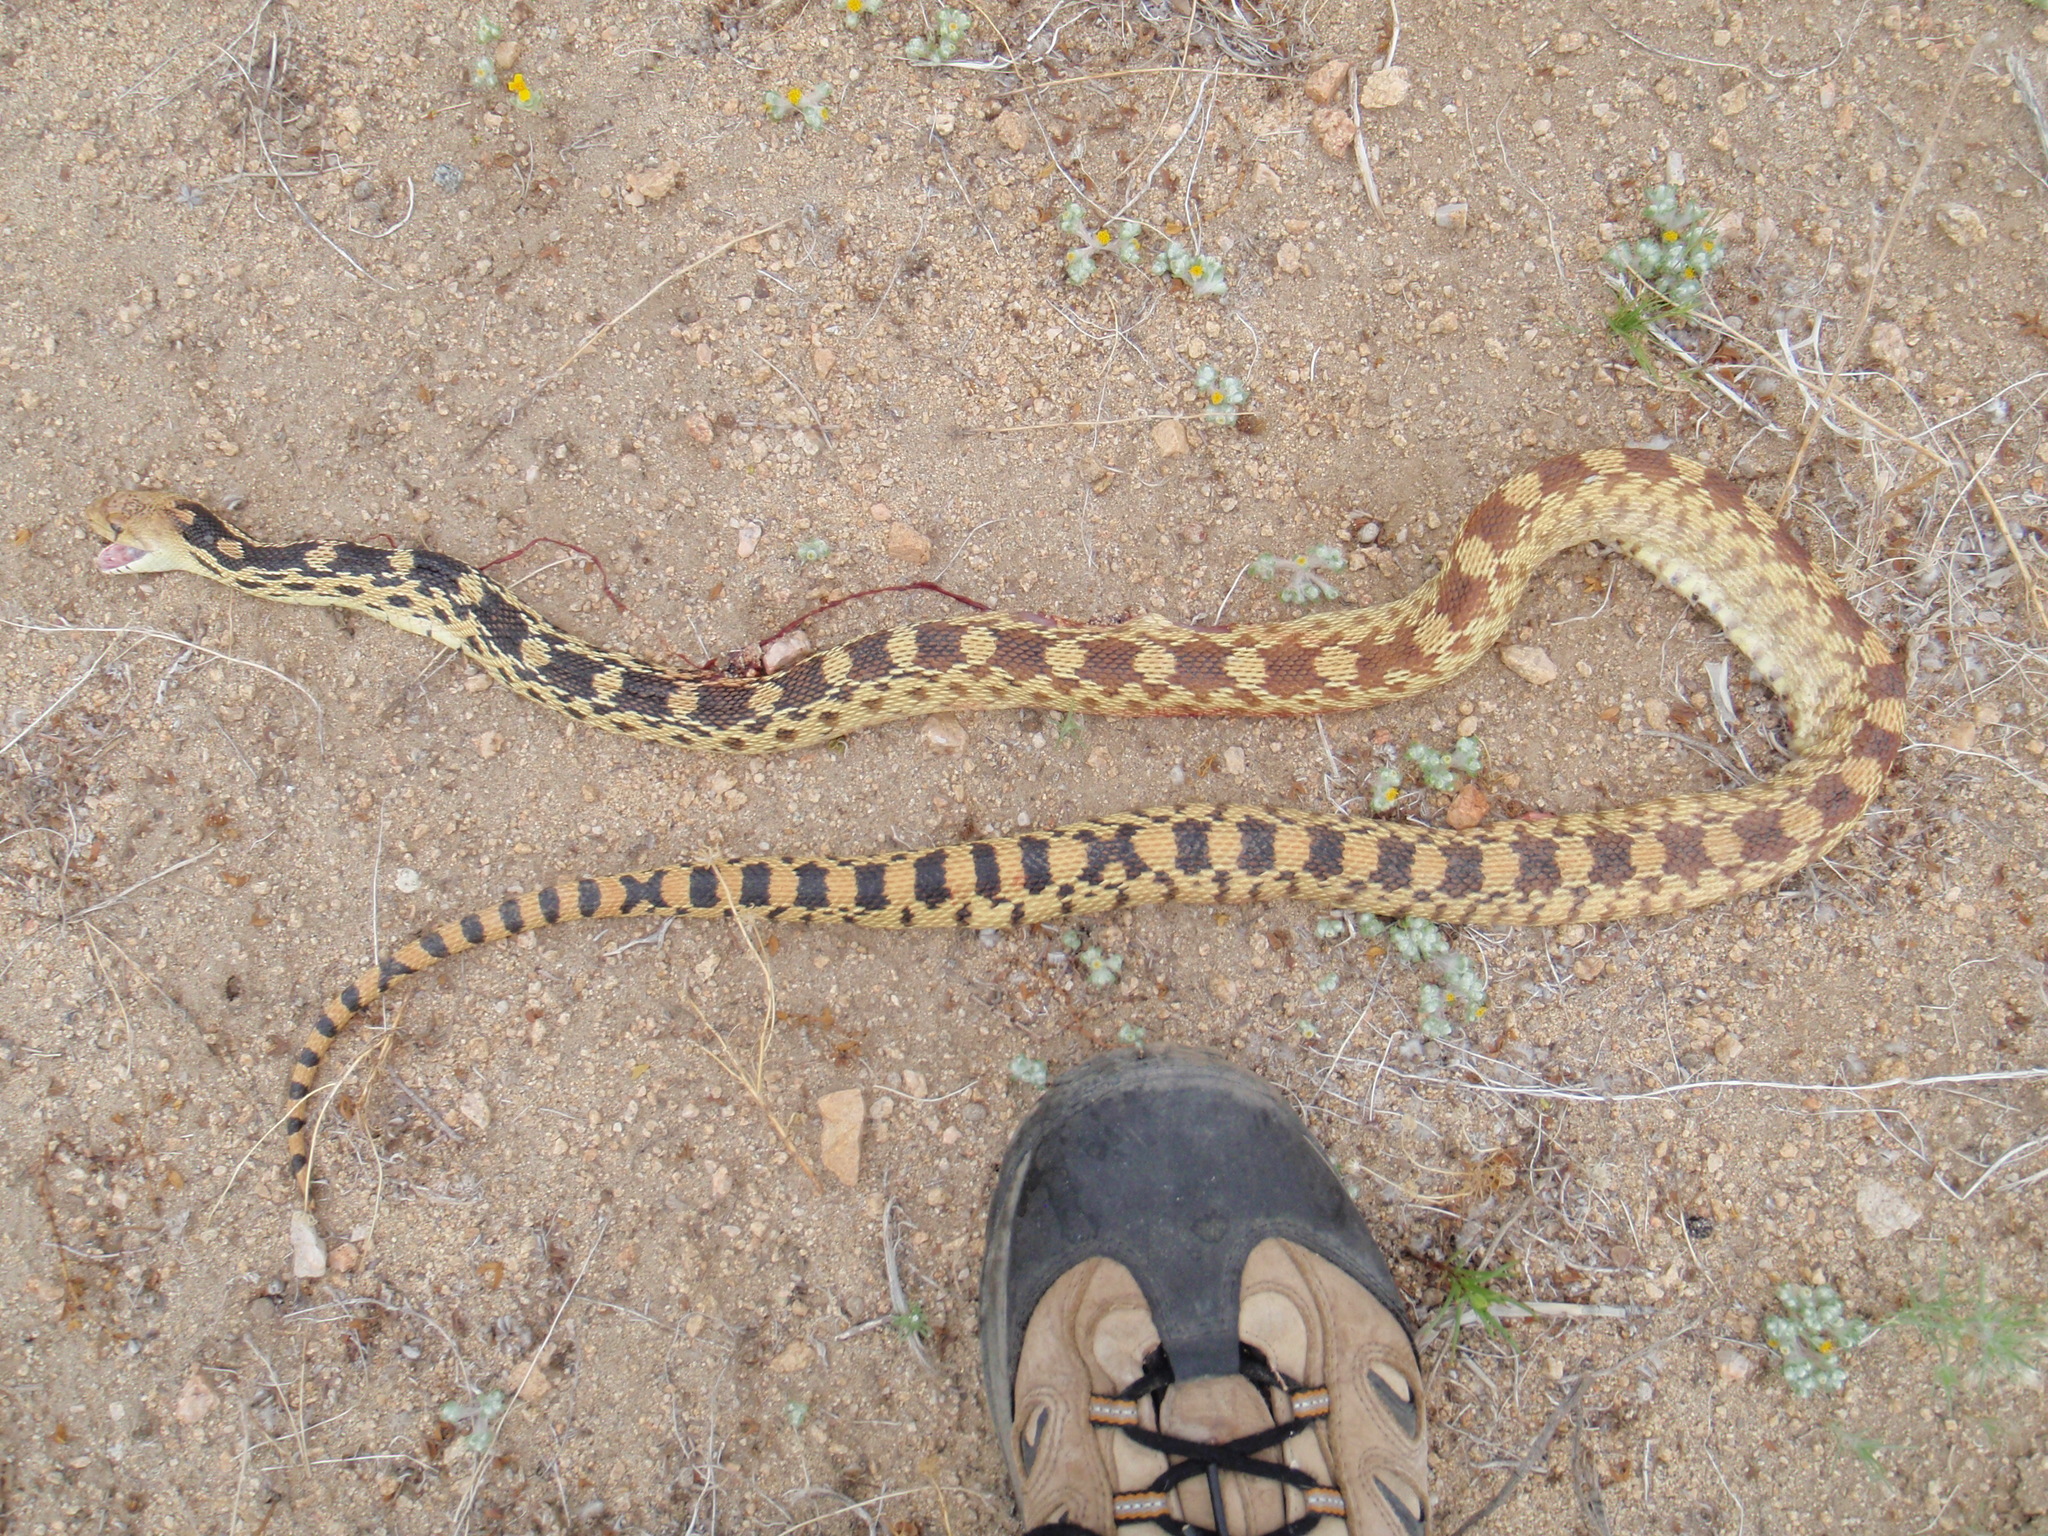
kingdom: Animalia
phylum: Chordata
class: Squamata
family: Colubridae
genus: Pituophis
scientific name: Pituophis catenifer
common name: Gopher snake
